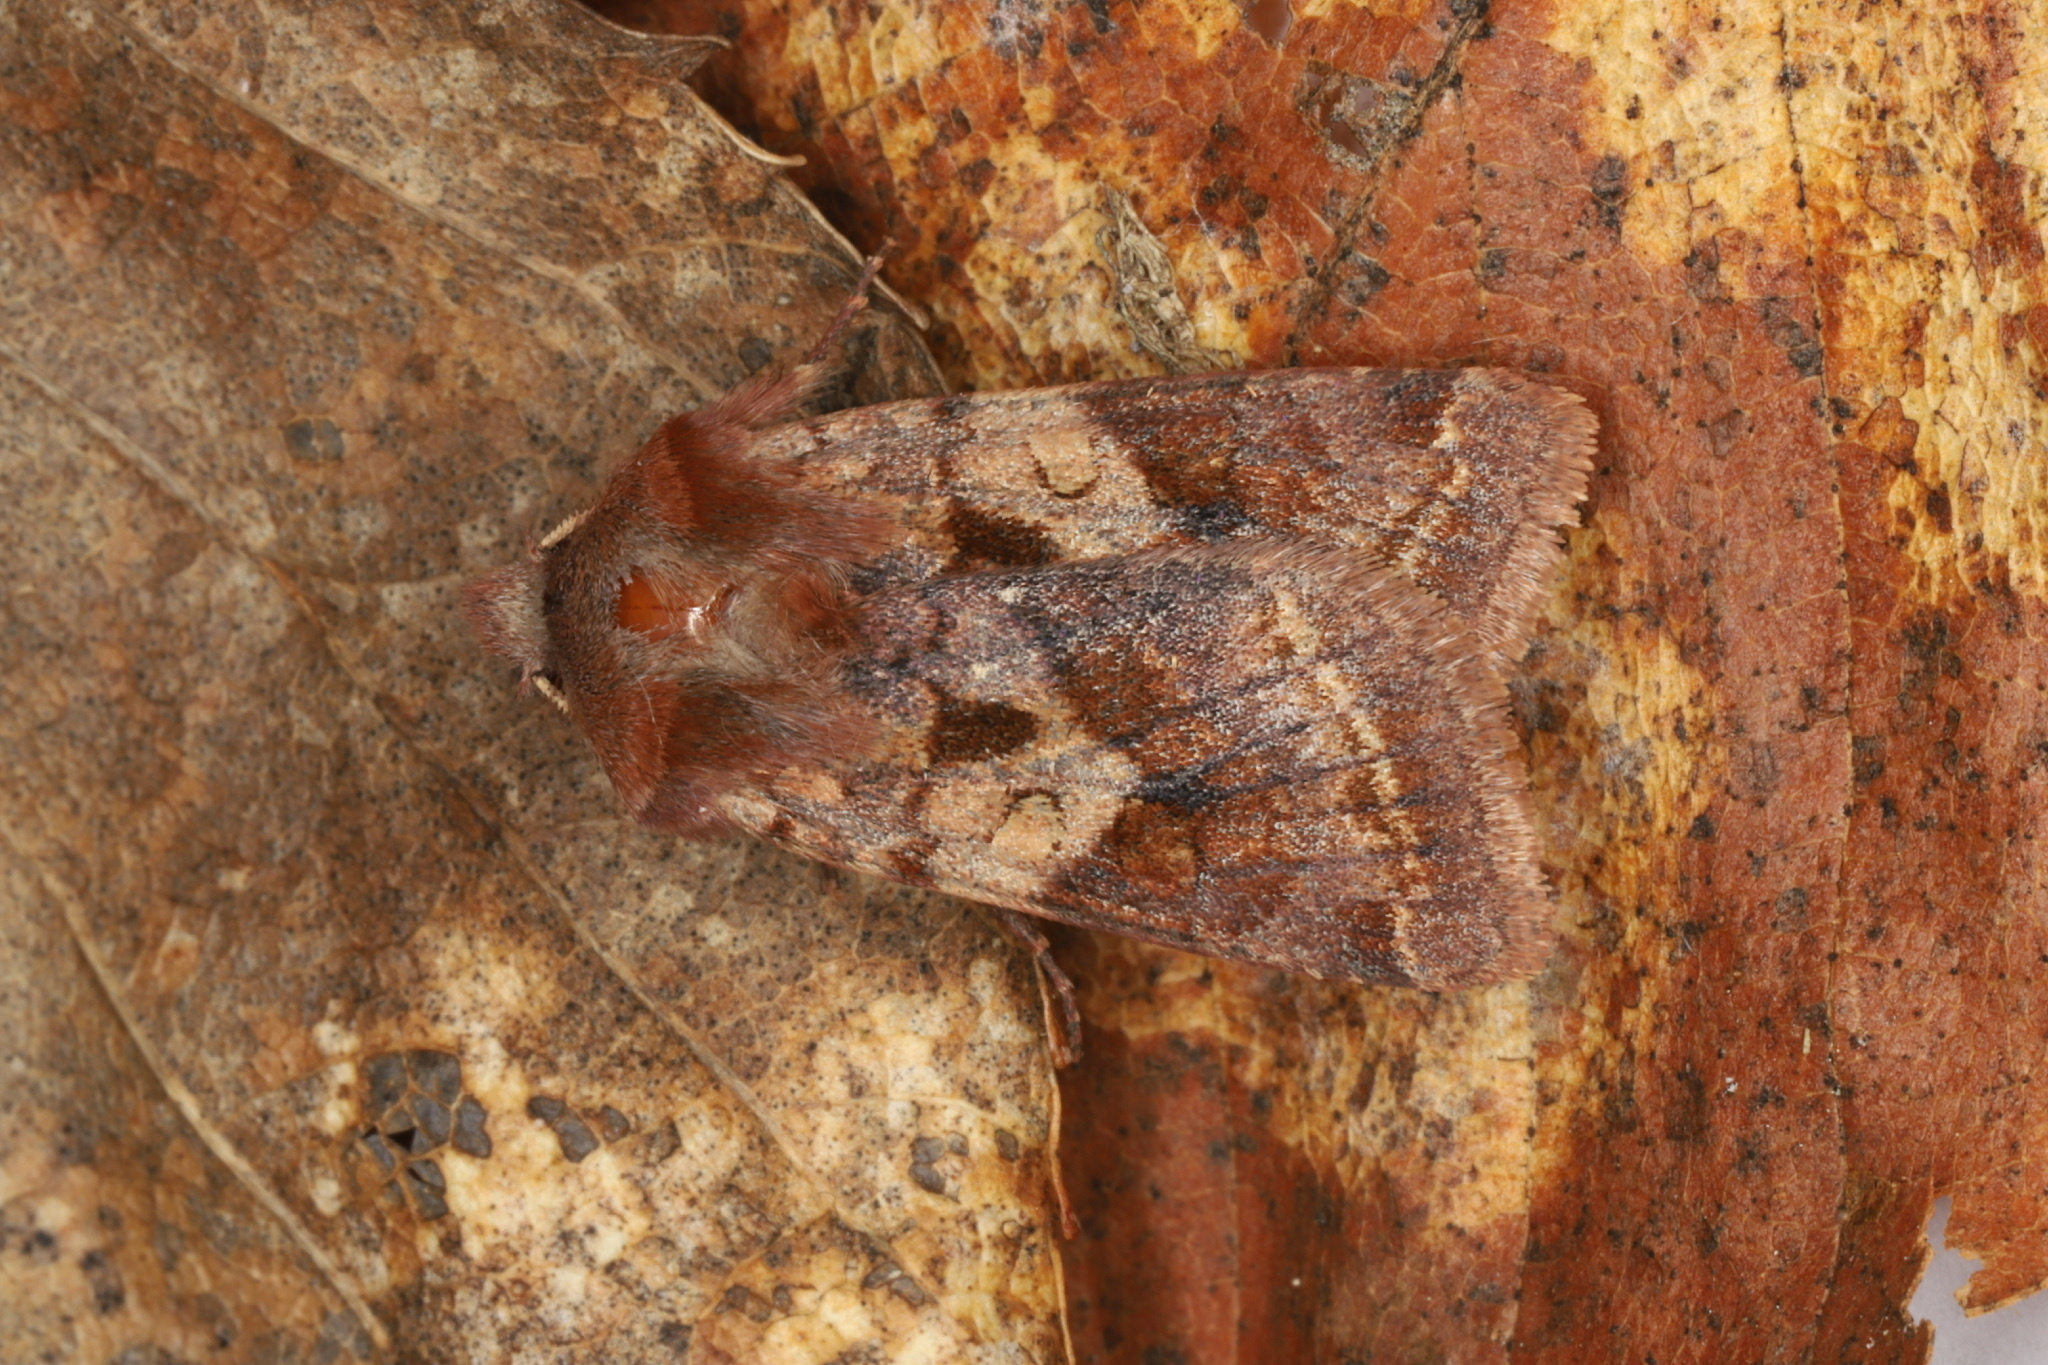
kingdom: Animalia
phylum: Arthropoda
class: Insecta
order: Lepidoptera
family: Noctuidae
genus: Cerastis
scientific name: Cerastis salicarum
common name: Willow dart
